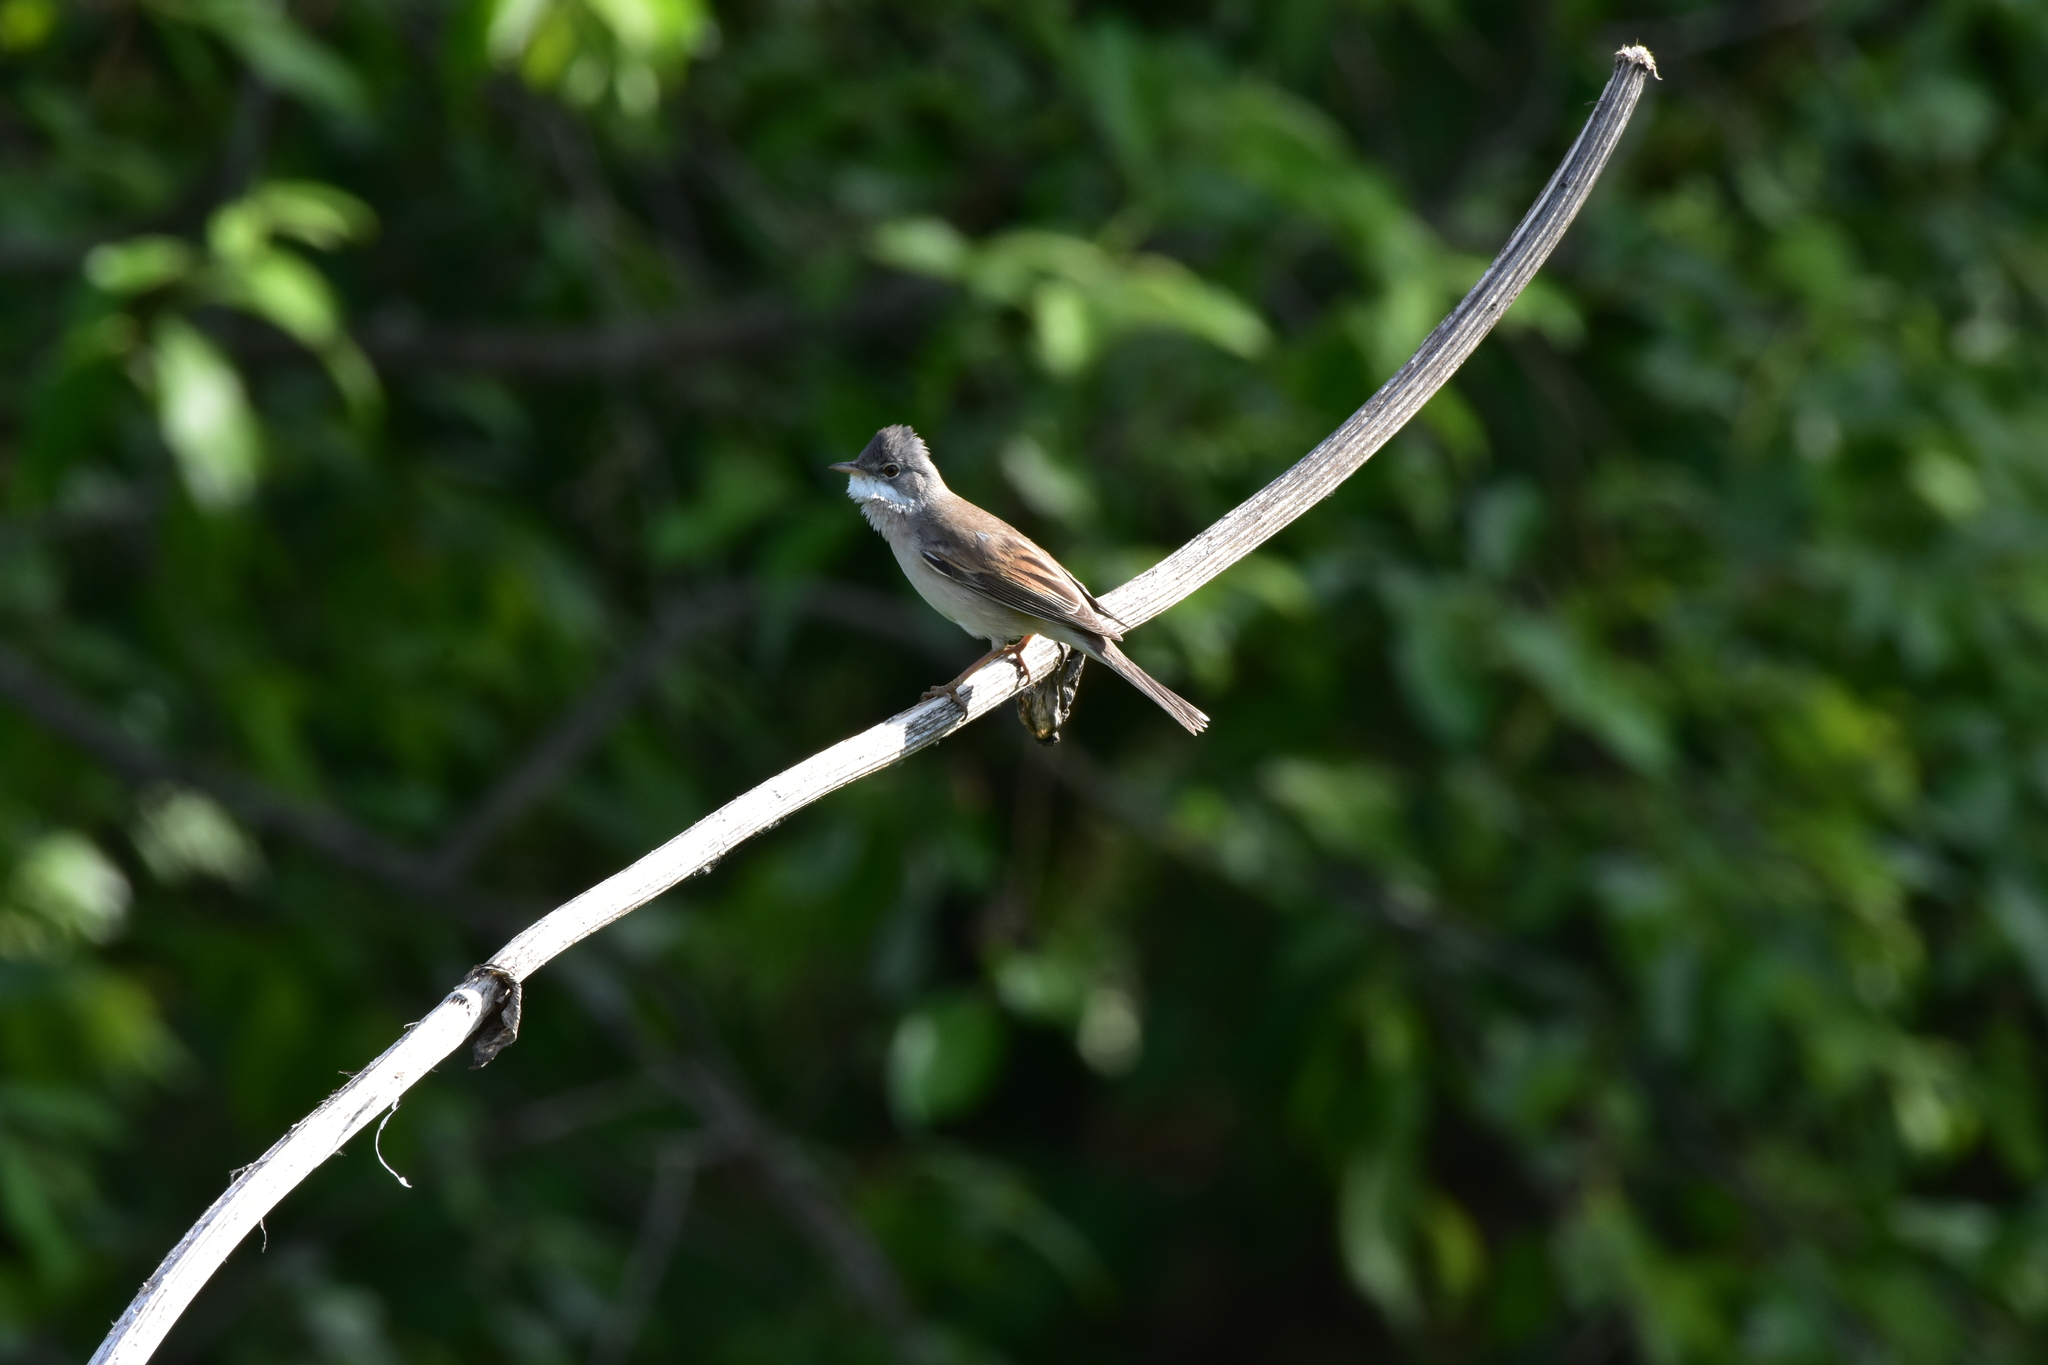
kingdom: Animalia
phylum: Chordata
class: Aves
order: Passeriformes
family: Sylviidae
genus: Sylvia
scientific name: Sylvia communis
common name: Common whitethroat
